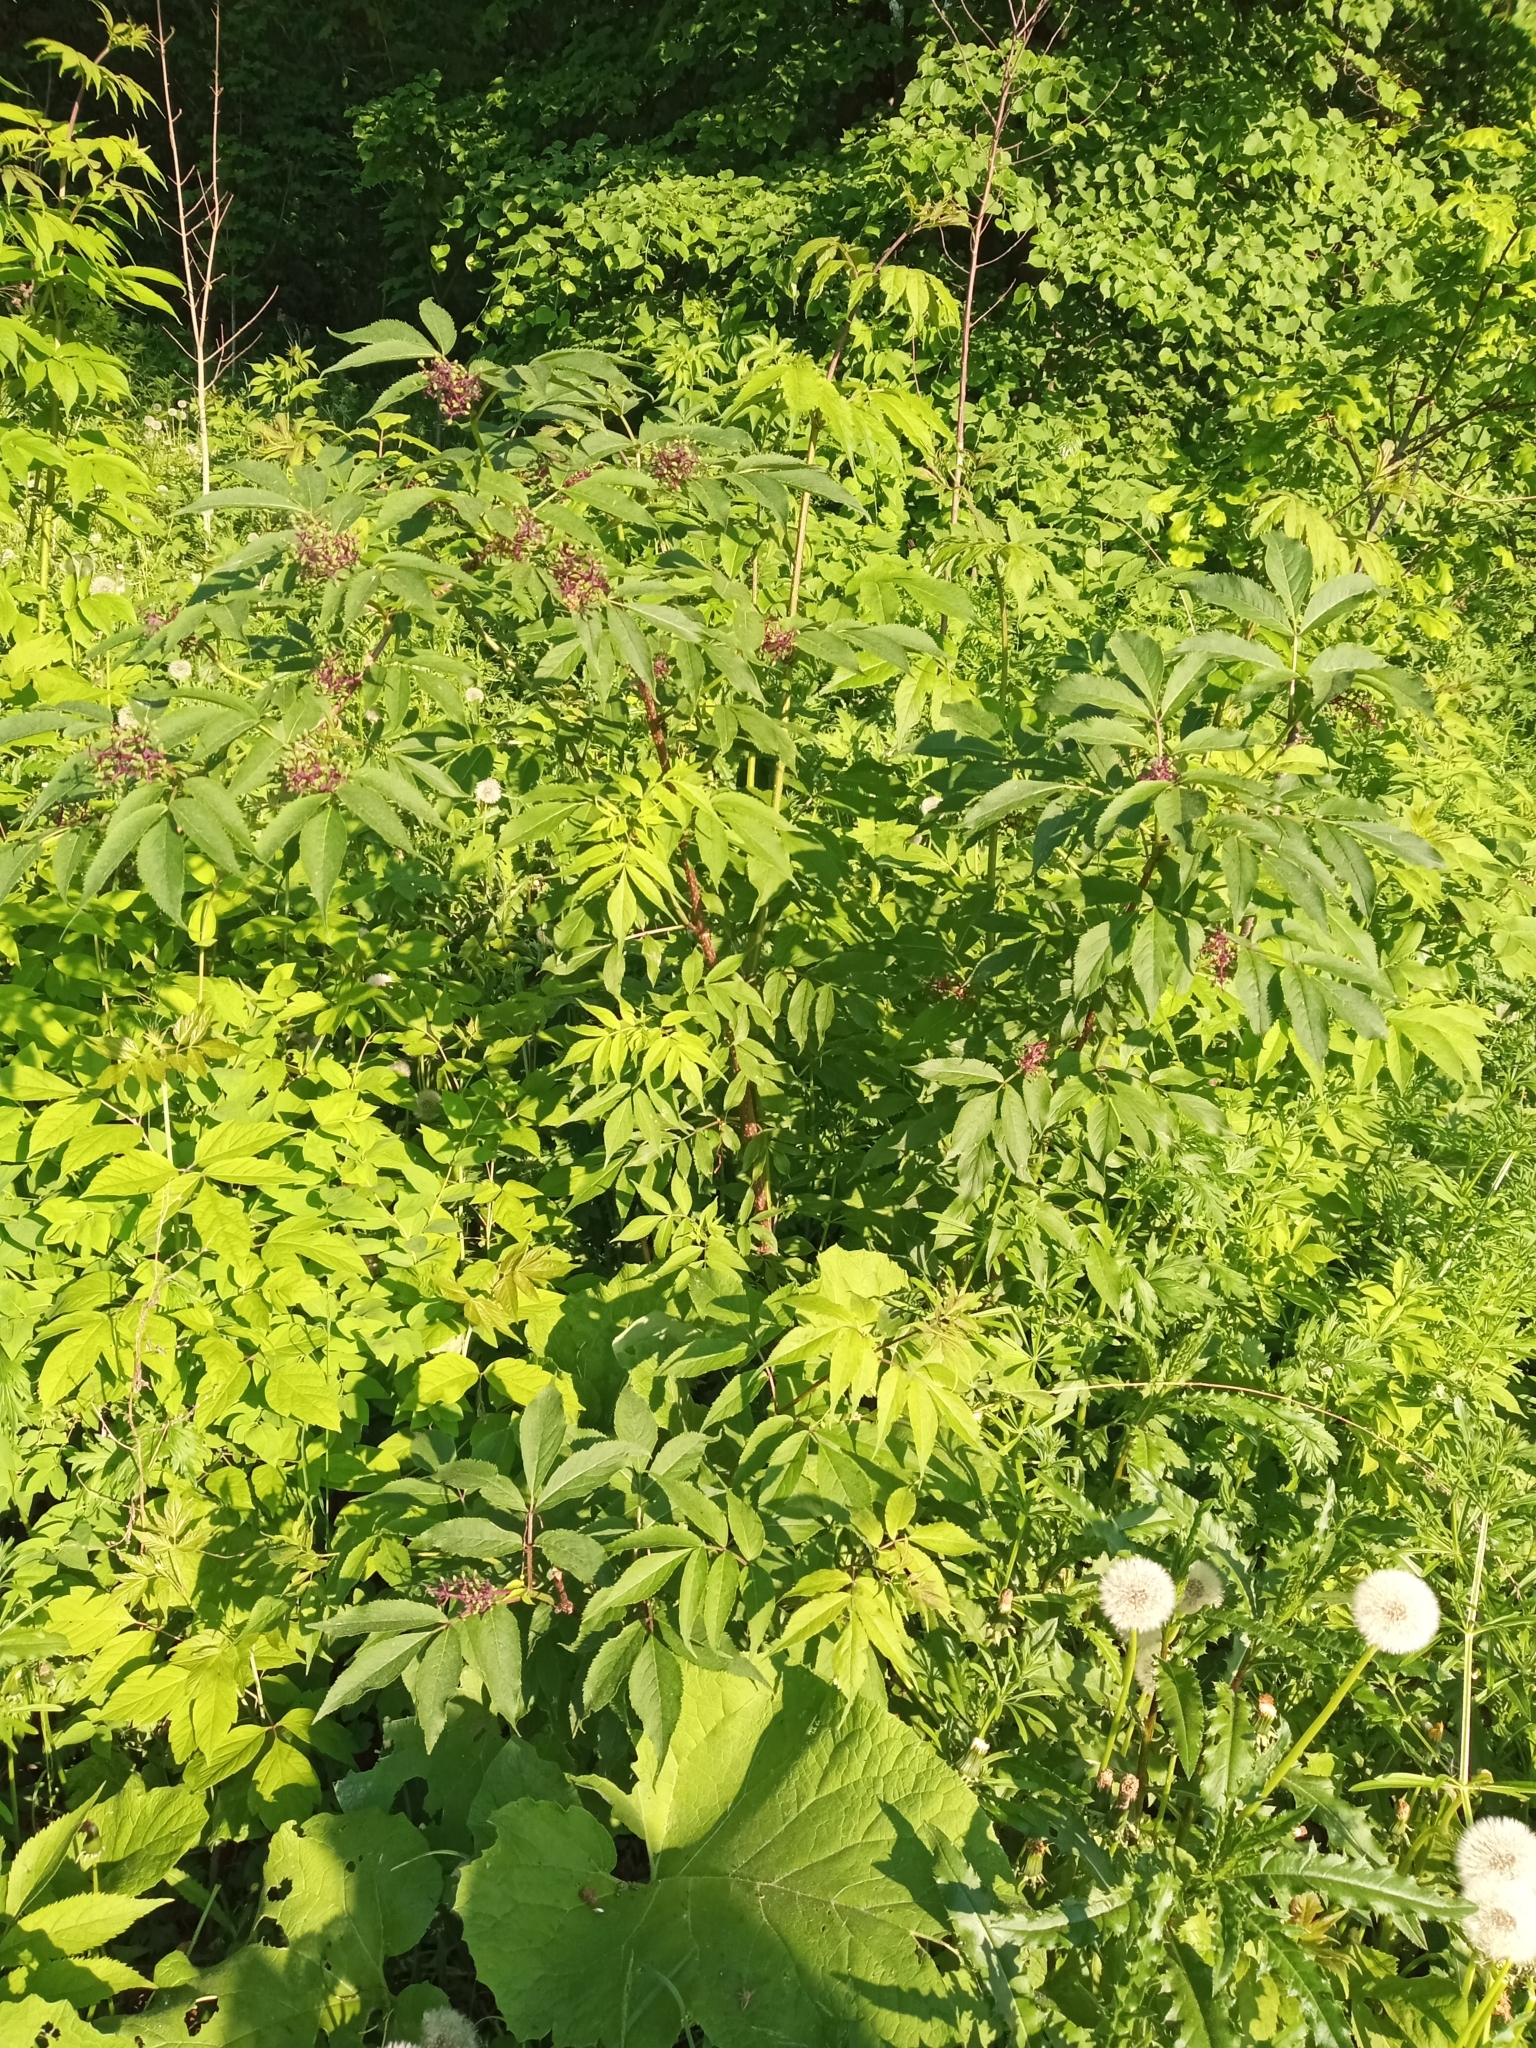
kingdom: Plantae
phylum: Tracheophyta
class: Magnoliopsida
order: Dipsacales
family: Viburnaceae
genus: Sambucus
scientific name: Sambucus racemosa
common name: Red-berried elder
